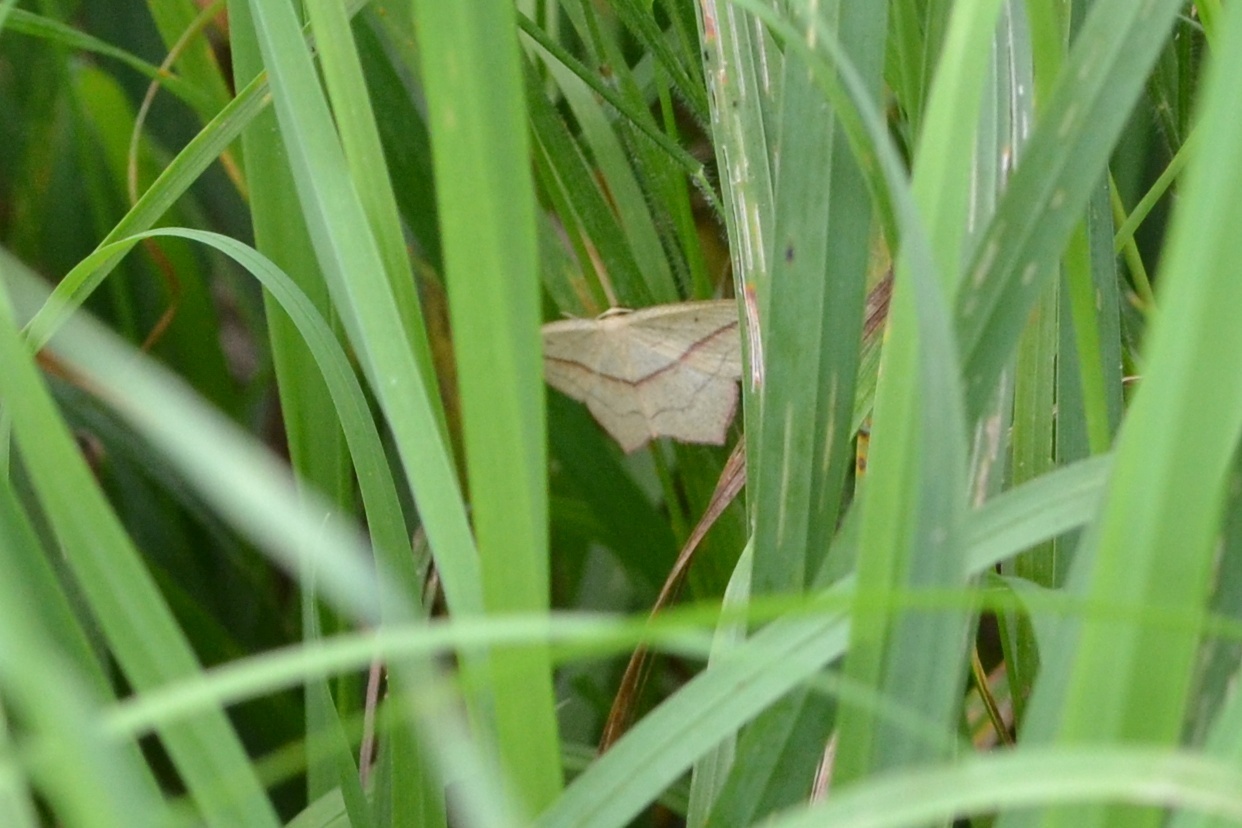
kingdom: Animalia
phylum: Arthropoda
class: Insecta
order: Lepidoptera
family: Geometridae
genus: Timandra
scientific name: Timandra comae
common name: Blood-vein
